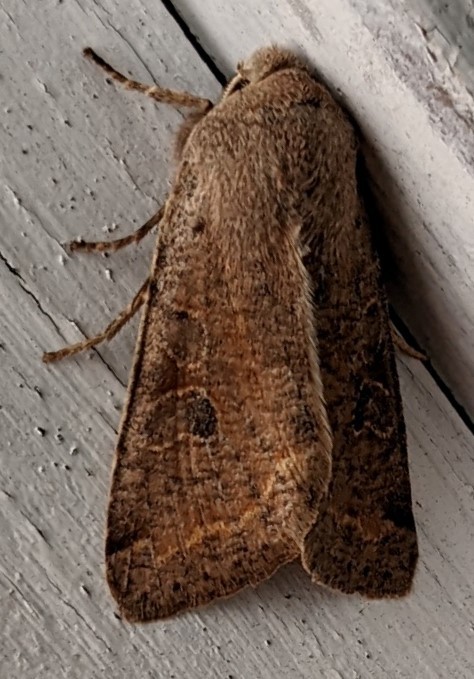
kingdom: Animalia
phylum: Arthropoda
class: Insecta
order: Lepidoptera
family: Noctuidae
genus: Orthosia
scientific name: Orthosia rubescens
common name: Ruby quaker
